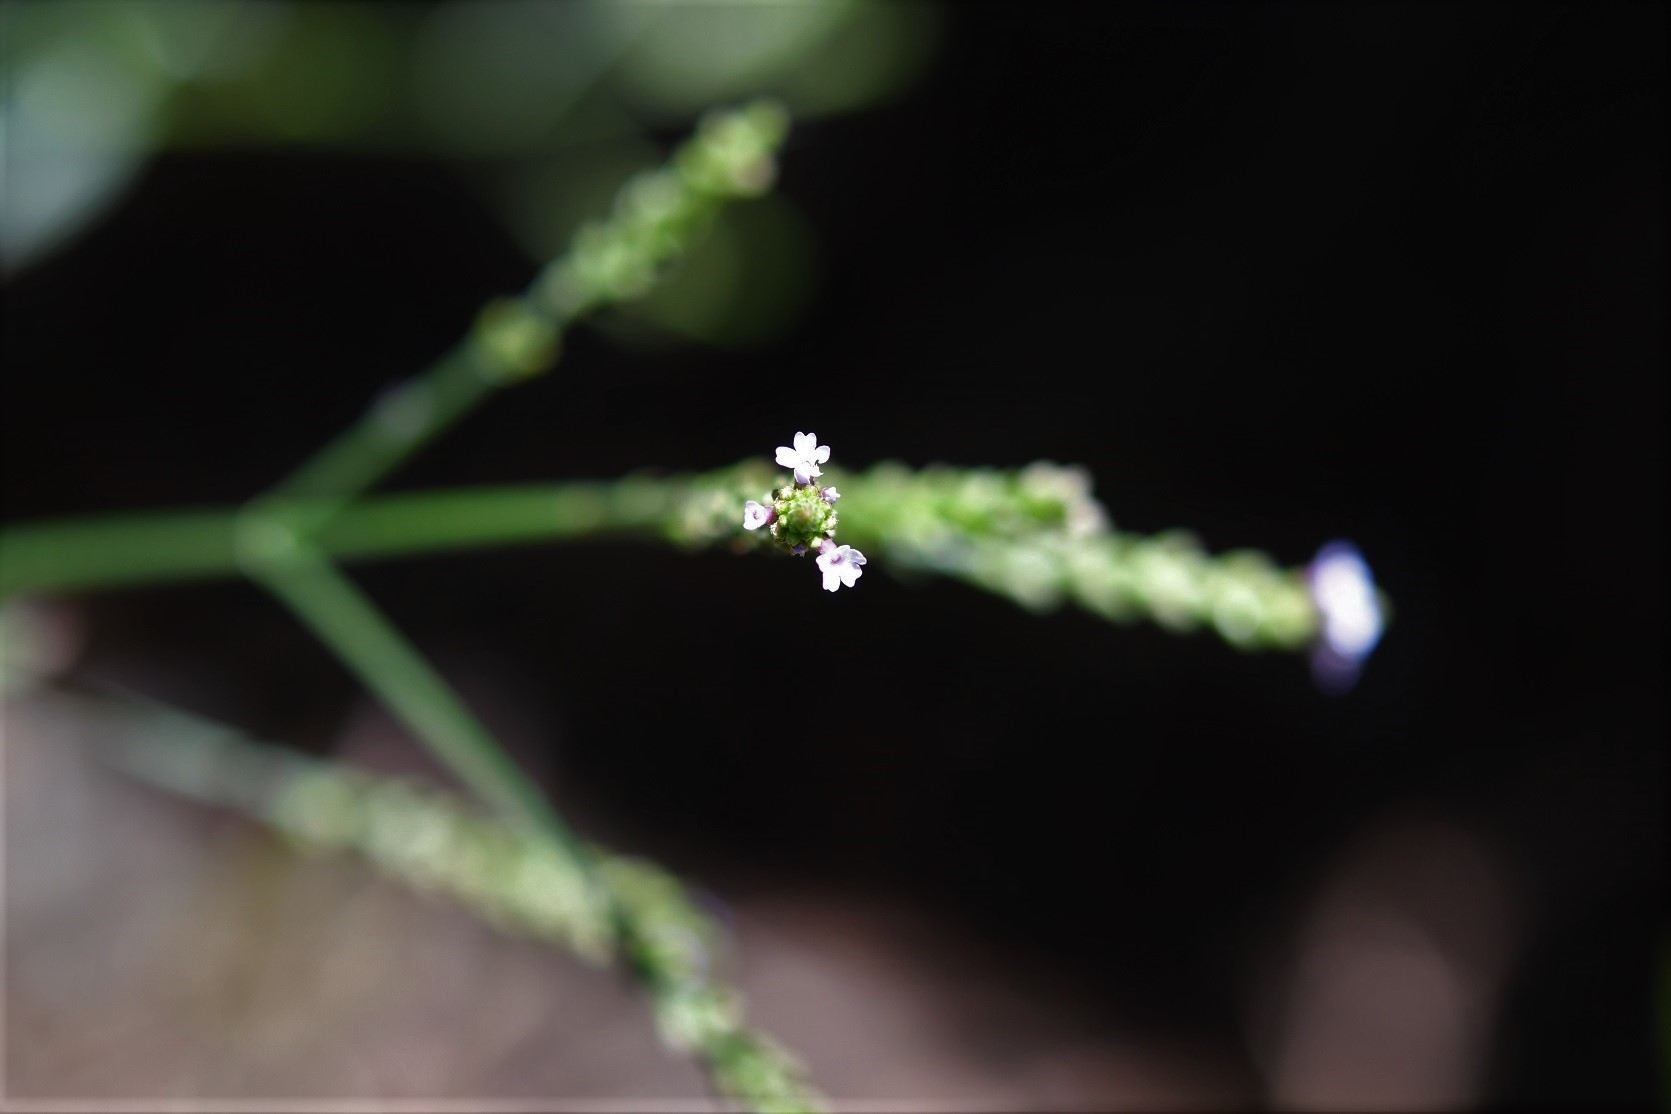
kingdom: Plantae
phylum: Tracheophyta
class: Magnoliopsida
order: Lamiales
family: Verbenaceae
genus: Verbena
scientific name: Verbena carolina
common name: Carolina vervain
